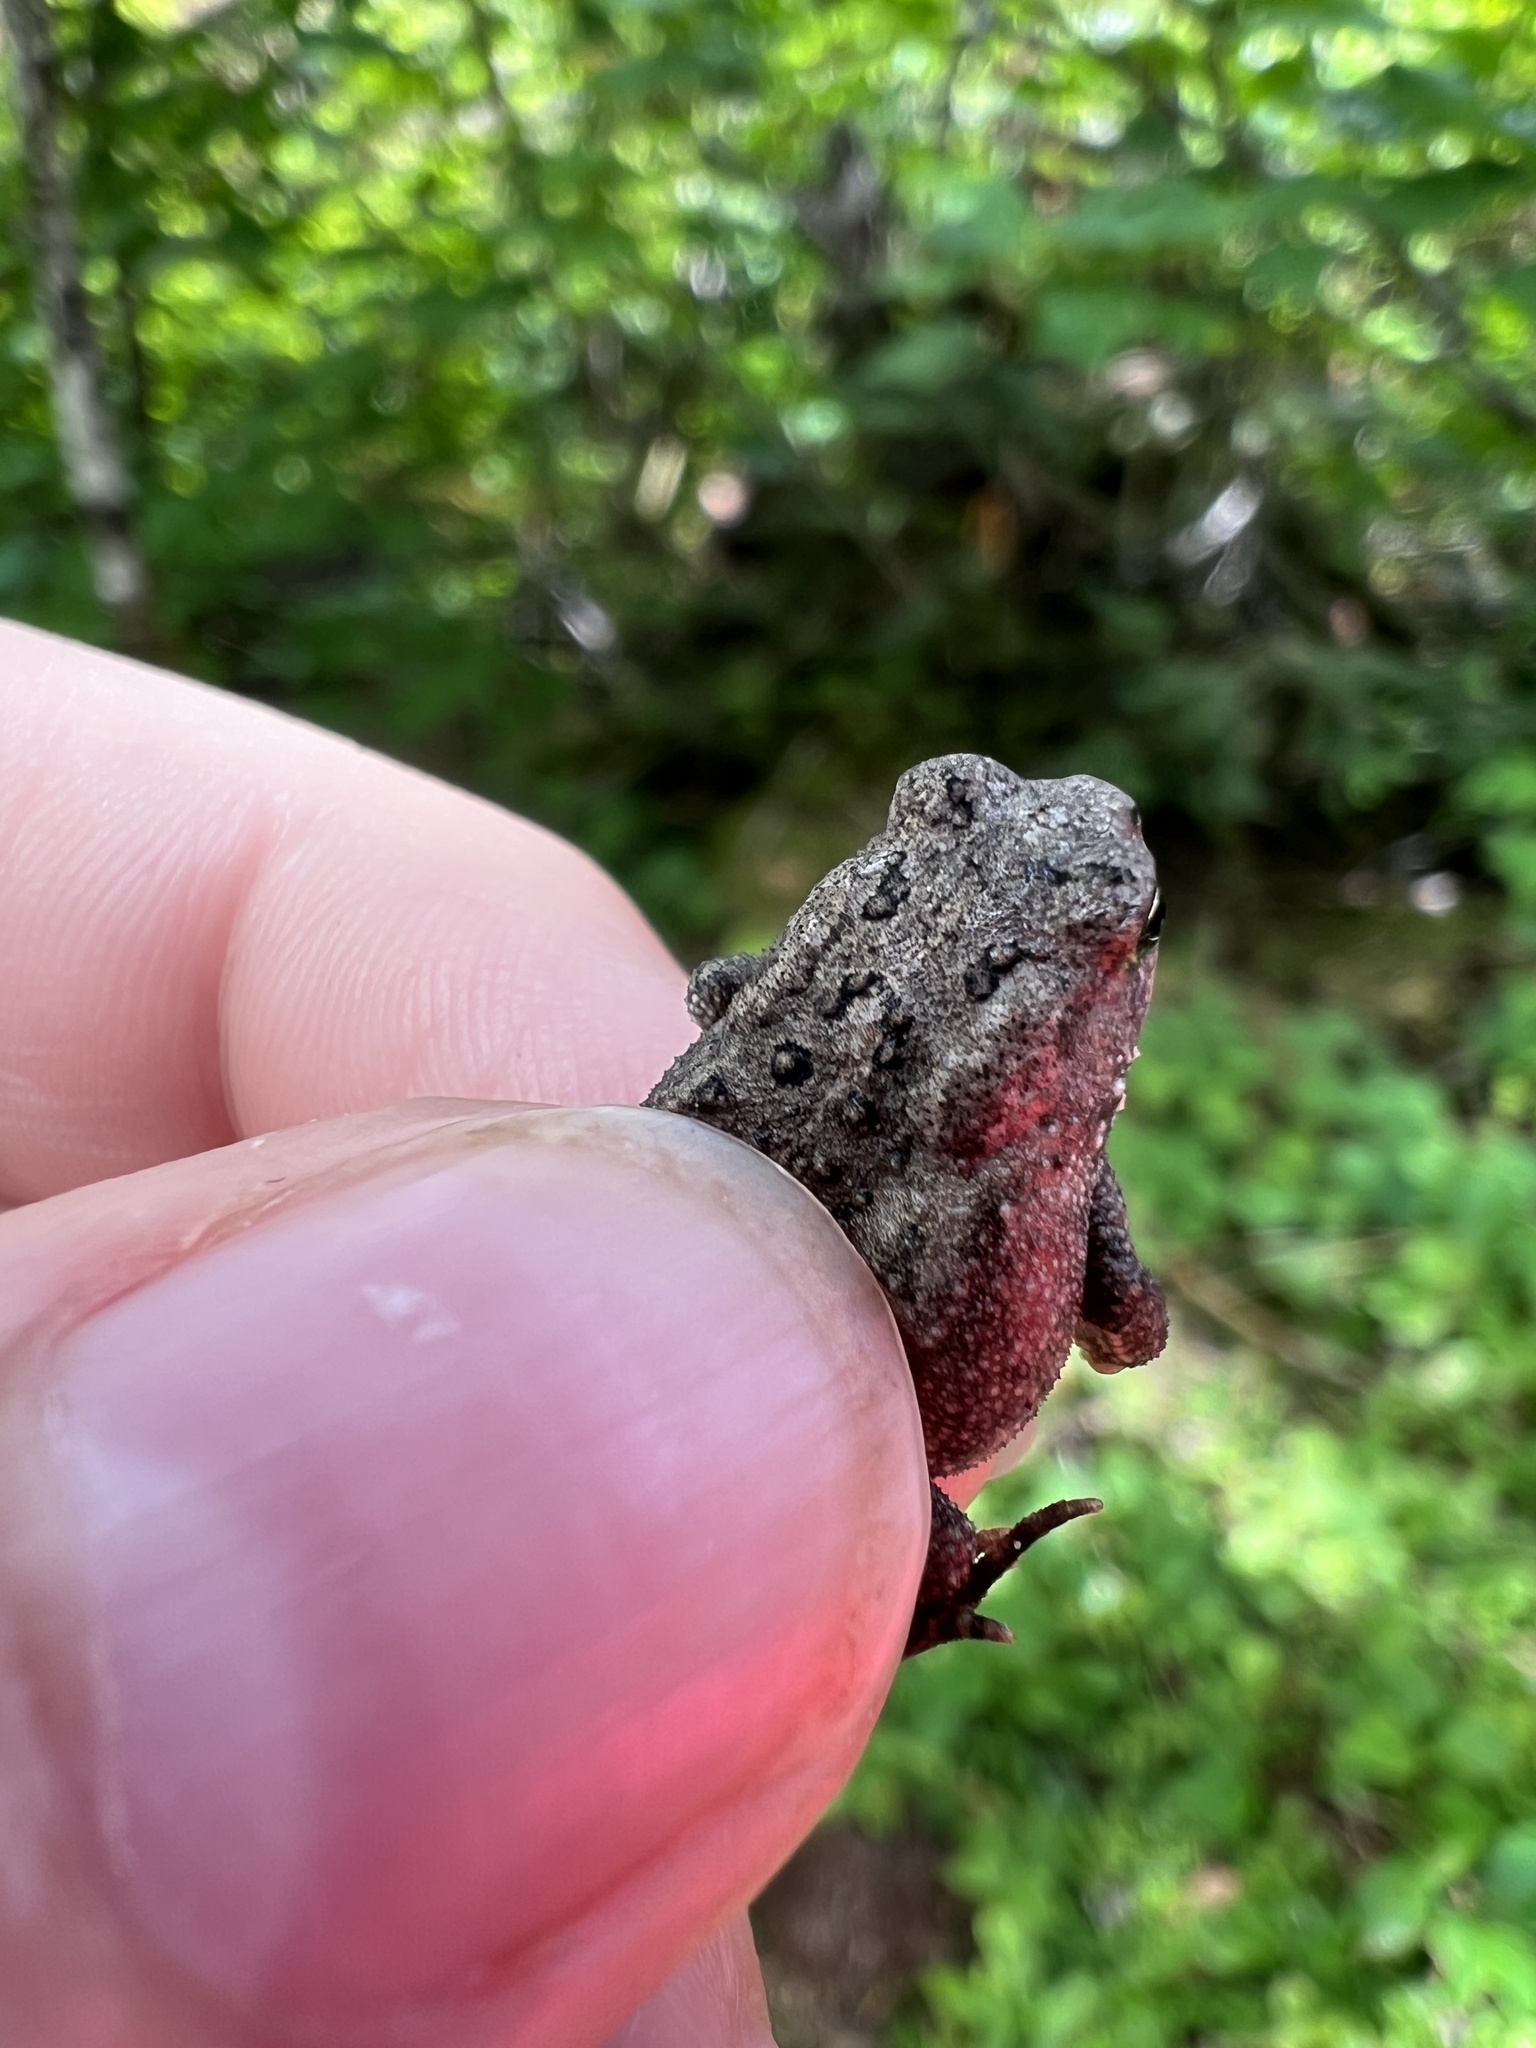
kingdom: Animalia
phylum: Chordata
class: Amphibia
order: Anura
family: Bufonidae
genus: Anaxyrus
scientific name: Anaxyrus americanus
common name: American toad
